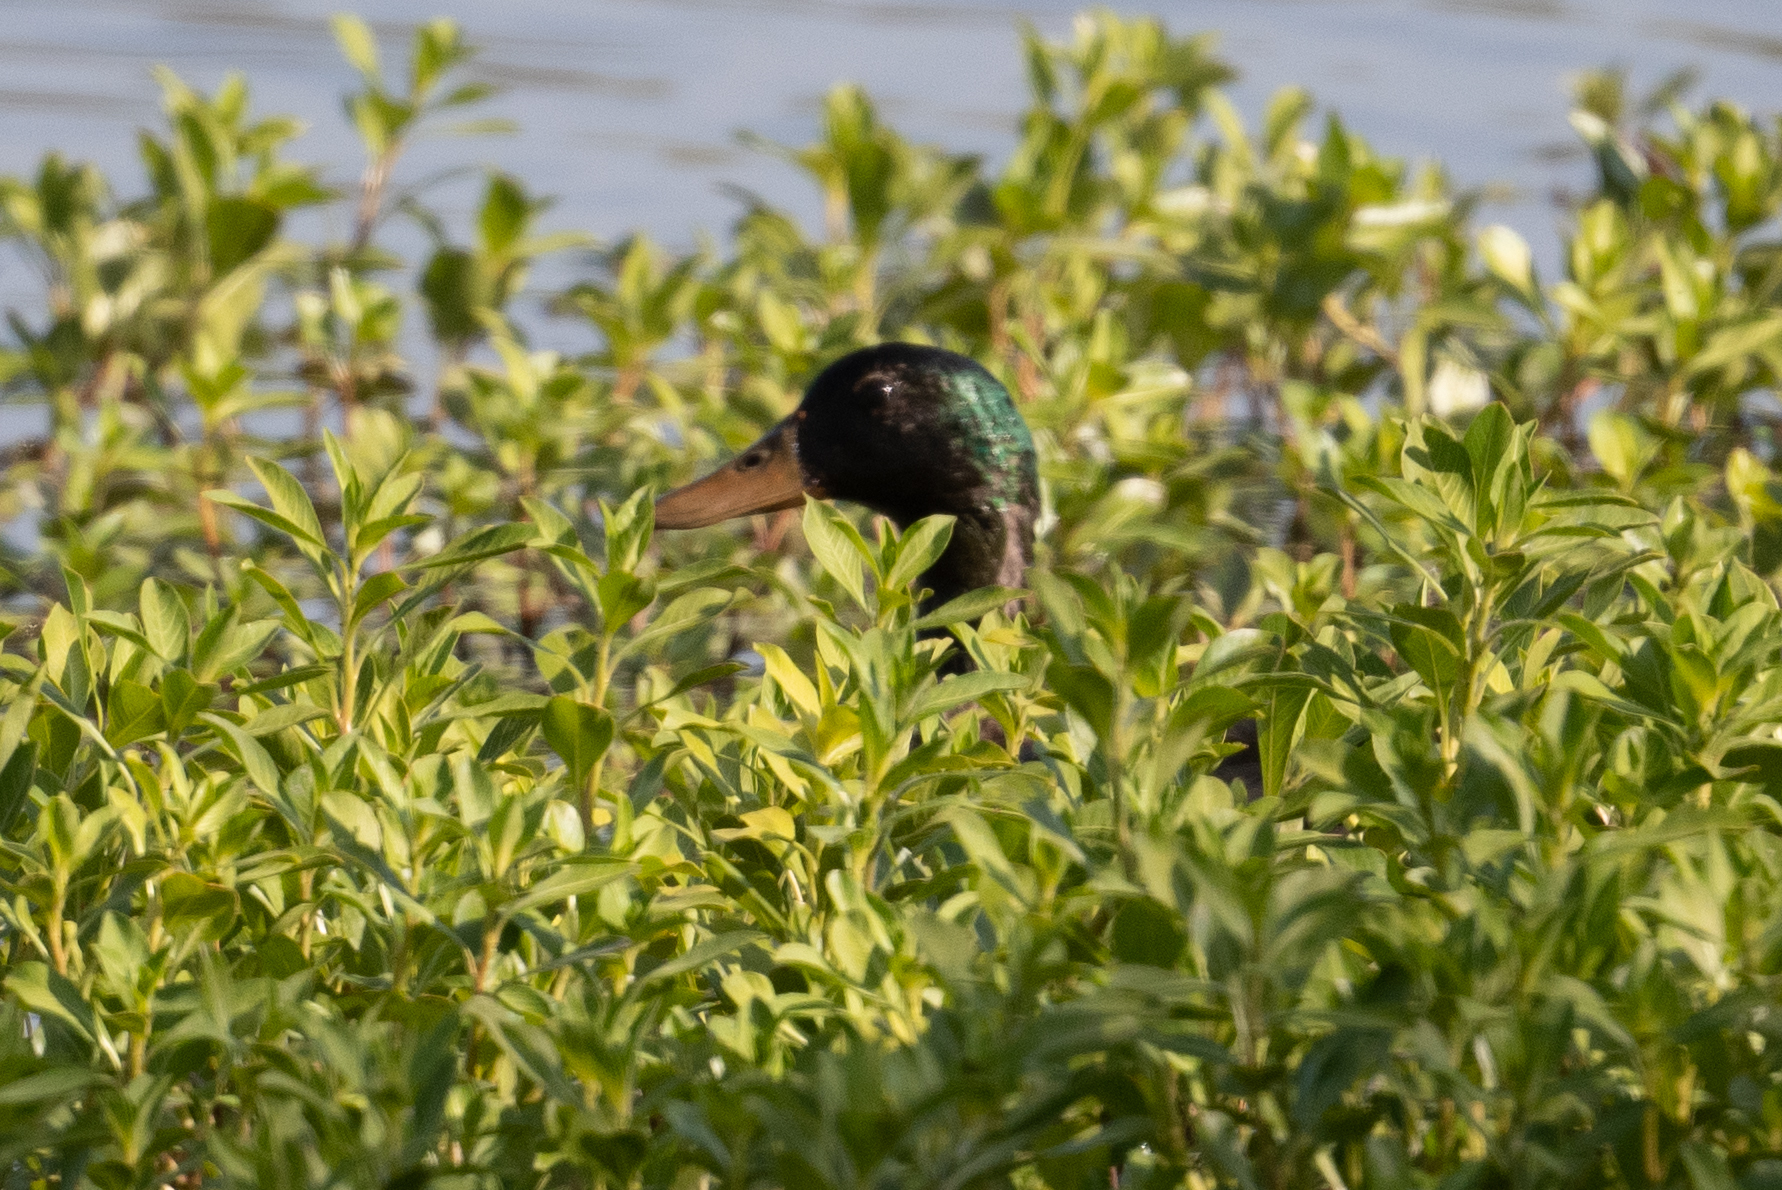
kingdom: Animalia
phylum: Chordata
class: Aves
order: Anseriformes
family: Anatidae
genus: Anas
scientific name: Anas platyrhynchos
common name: Mallard
